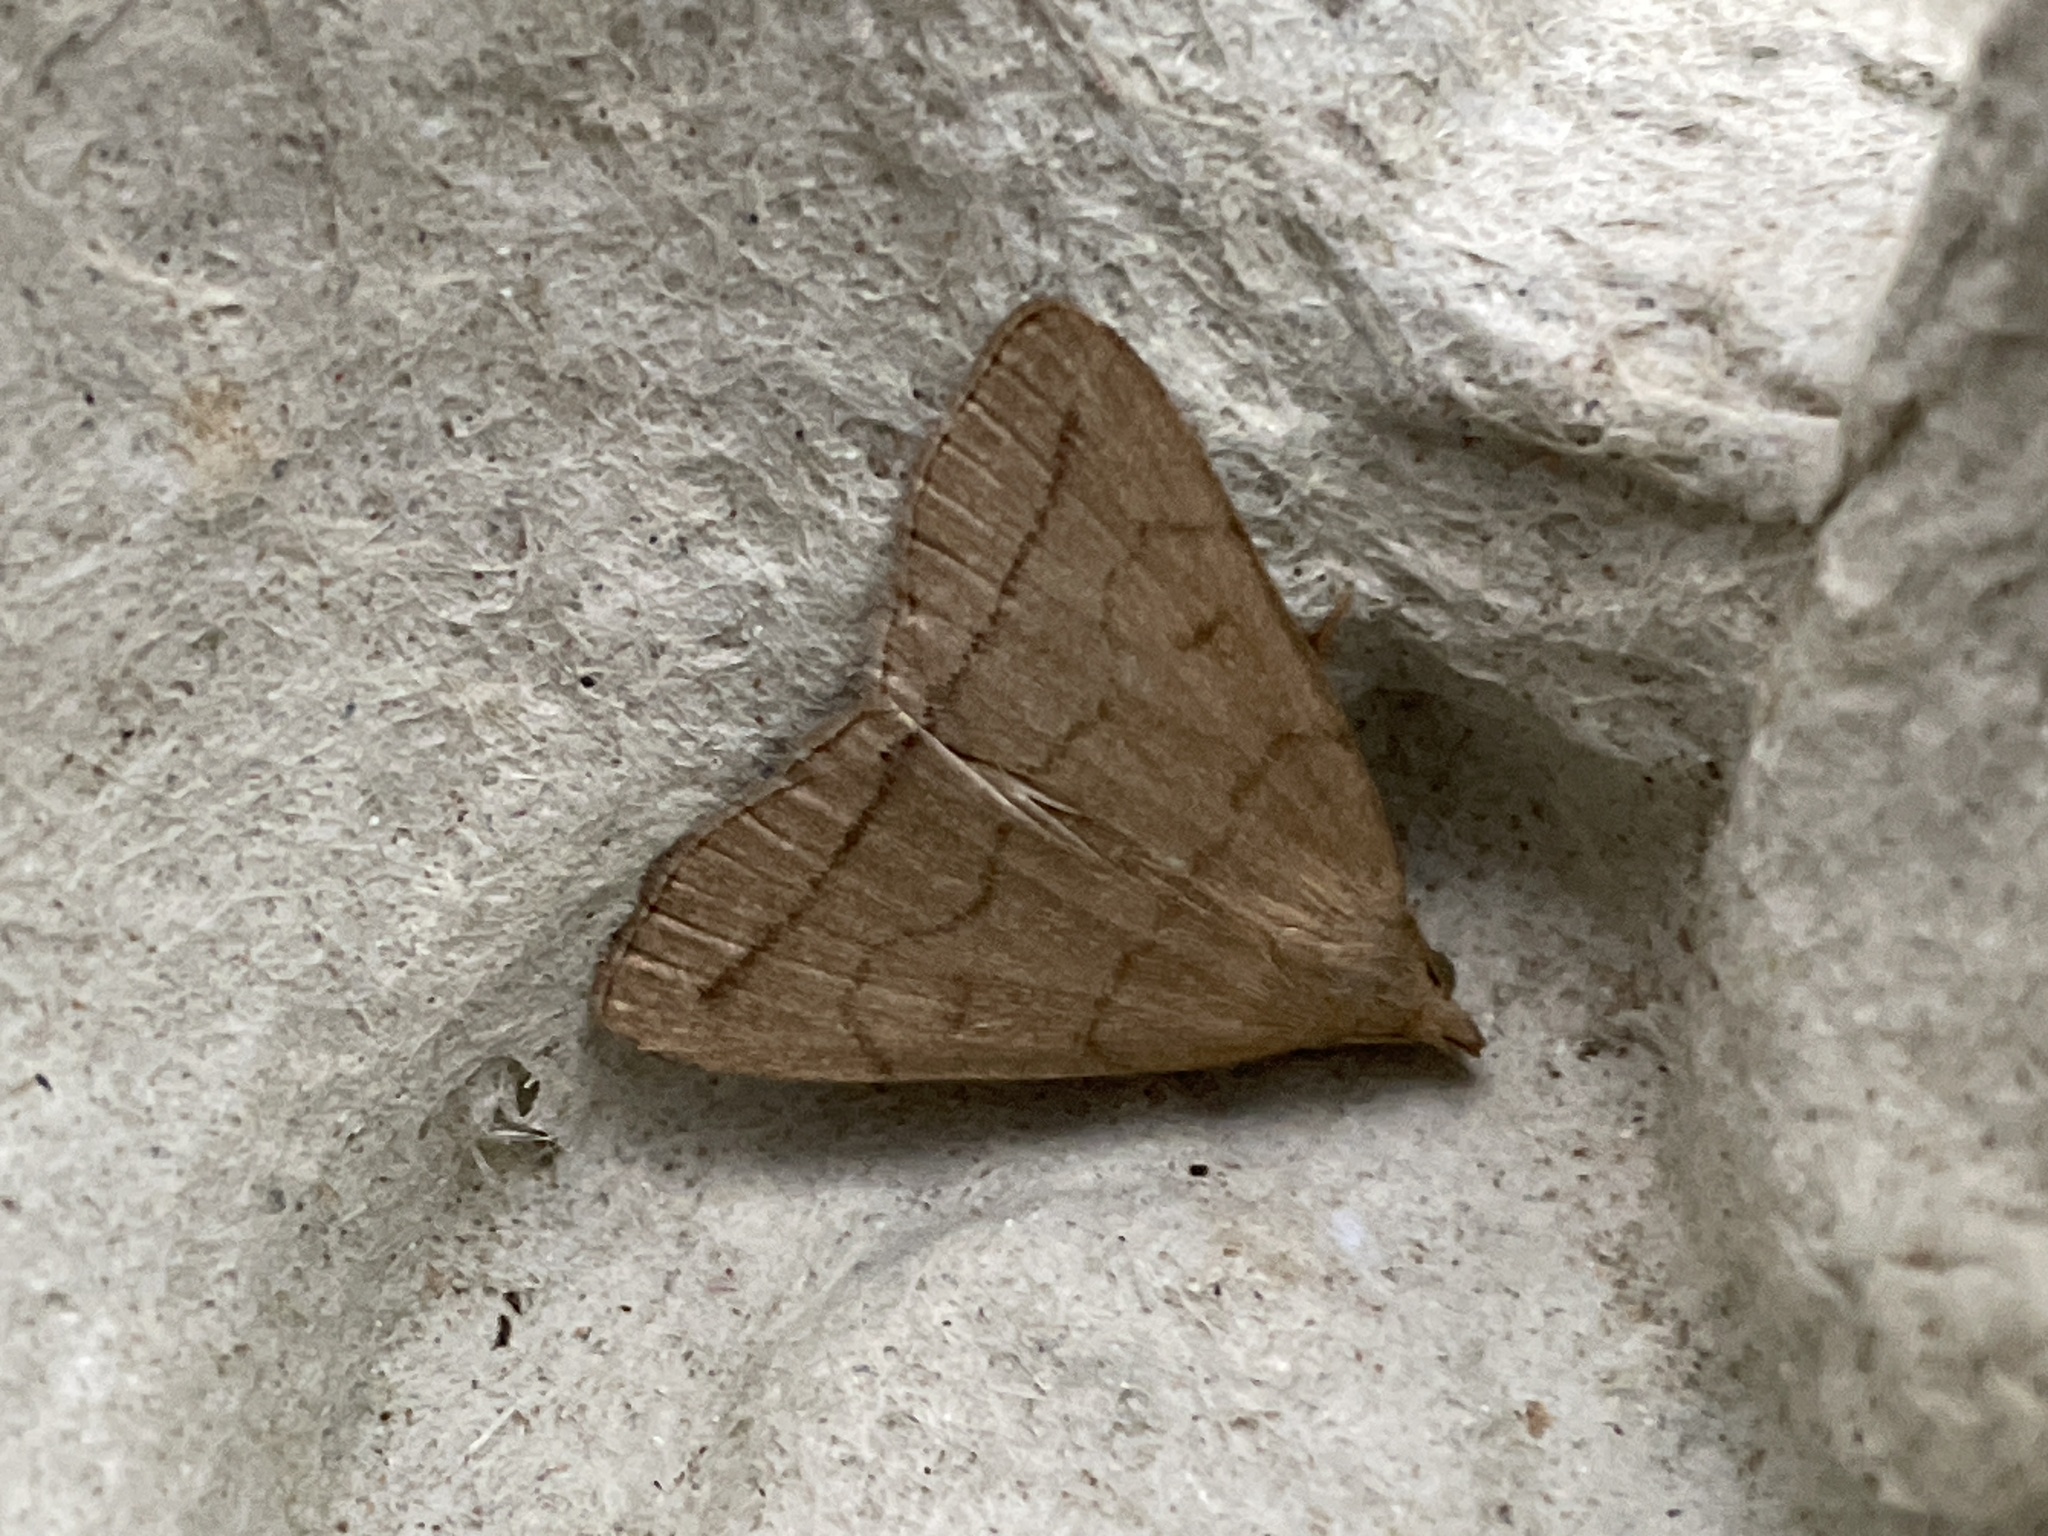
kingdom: Animalia
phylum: Arthropoda
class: Insecta
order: Lepidoptera
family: Erebidae
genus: Herminia
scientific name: Herminia tarsipennalis
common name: Fan-foot
